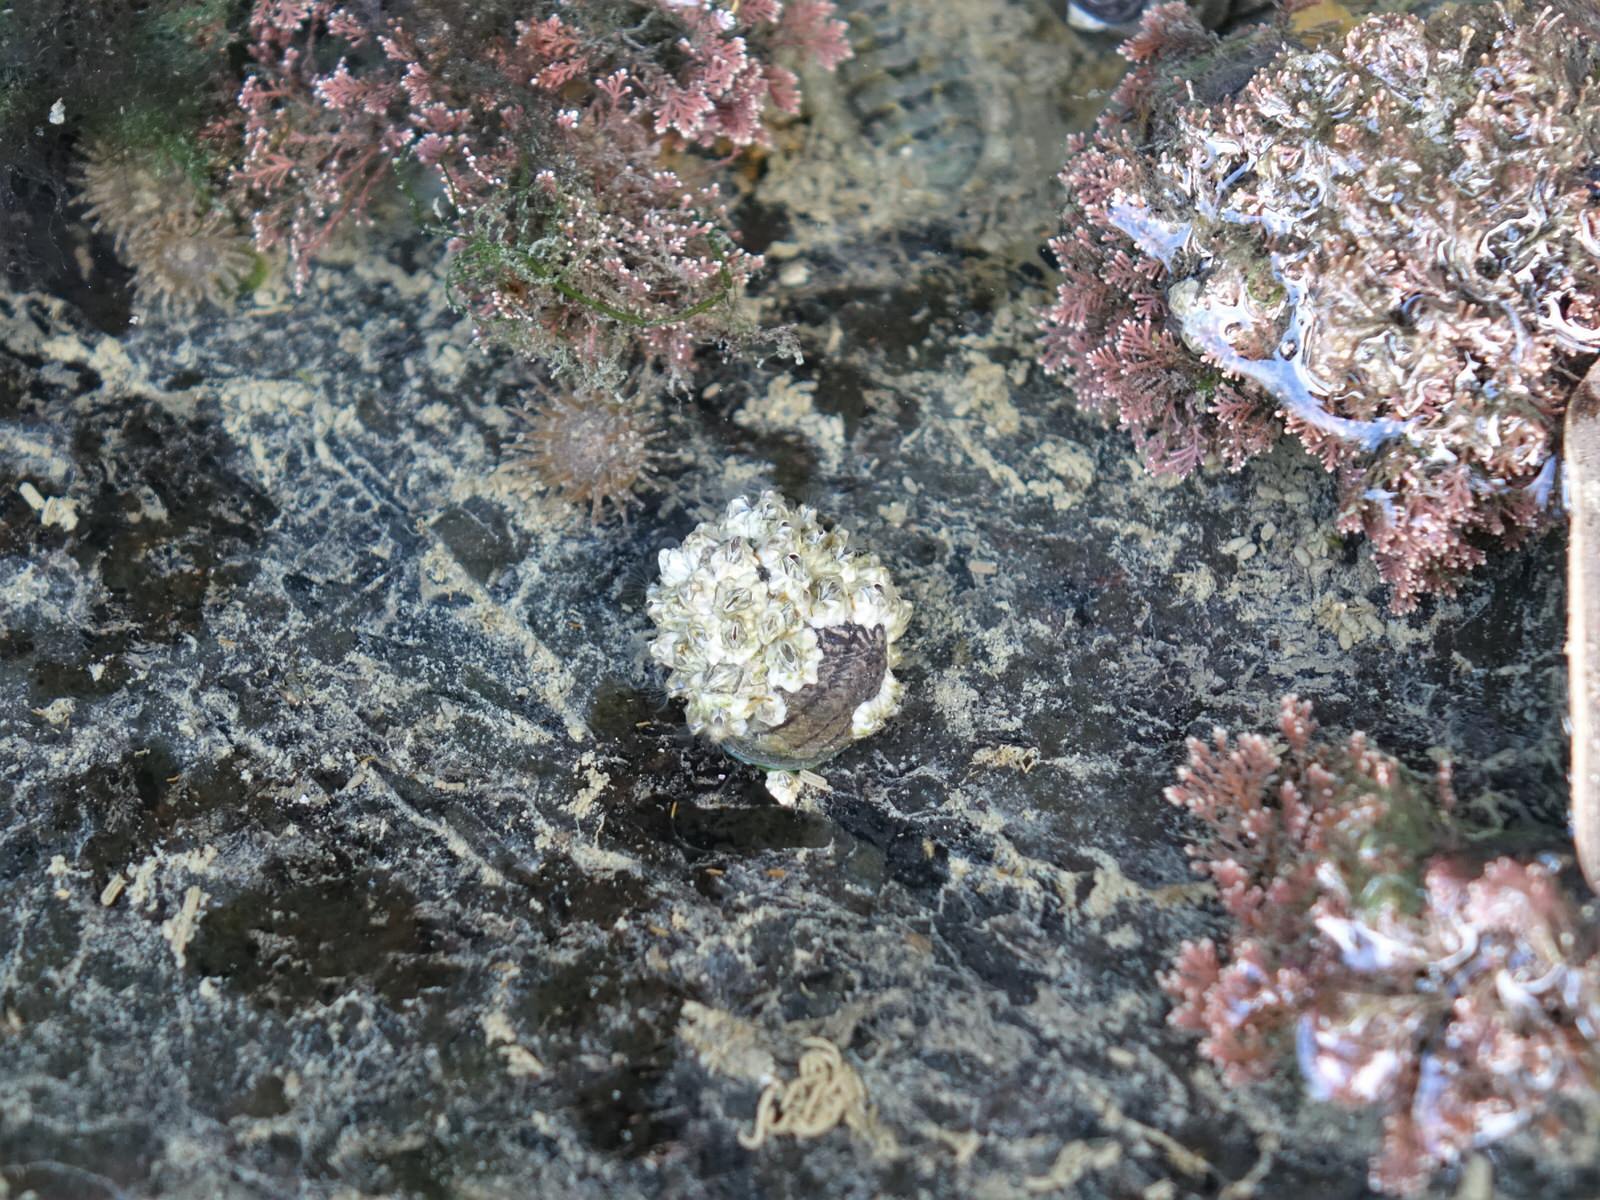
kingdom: Animalia
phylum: Arthropoda
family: Elminiidae
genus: Austrominius
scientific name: Austrominius modestus
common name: Australasian barnacle
